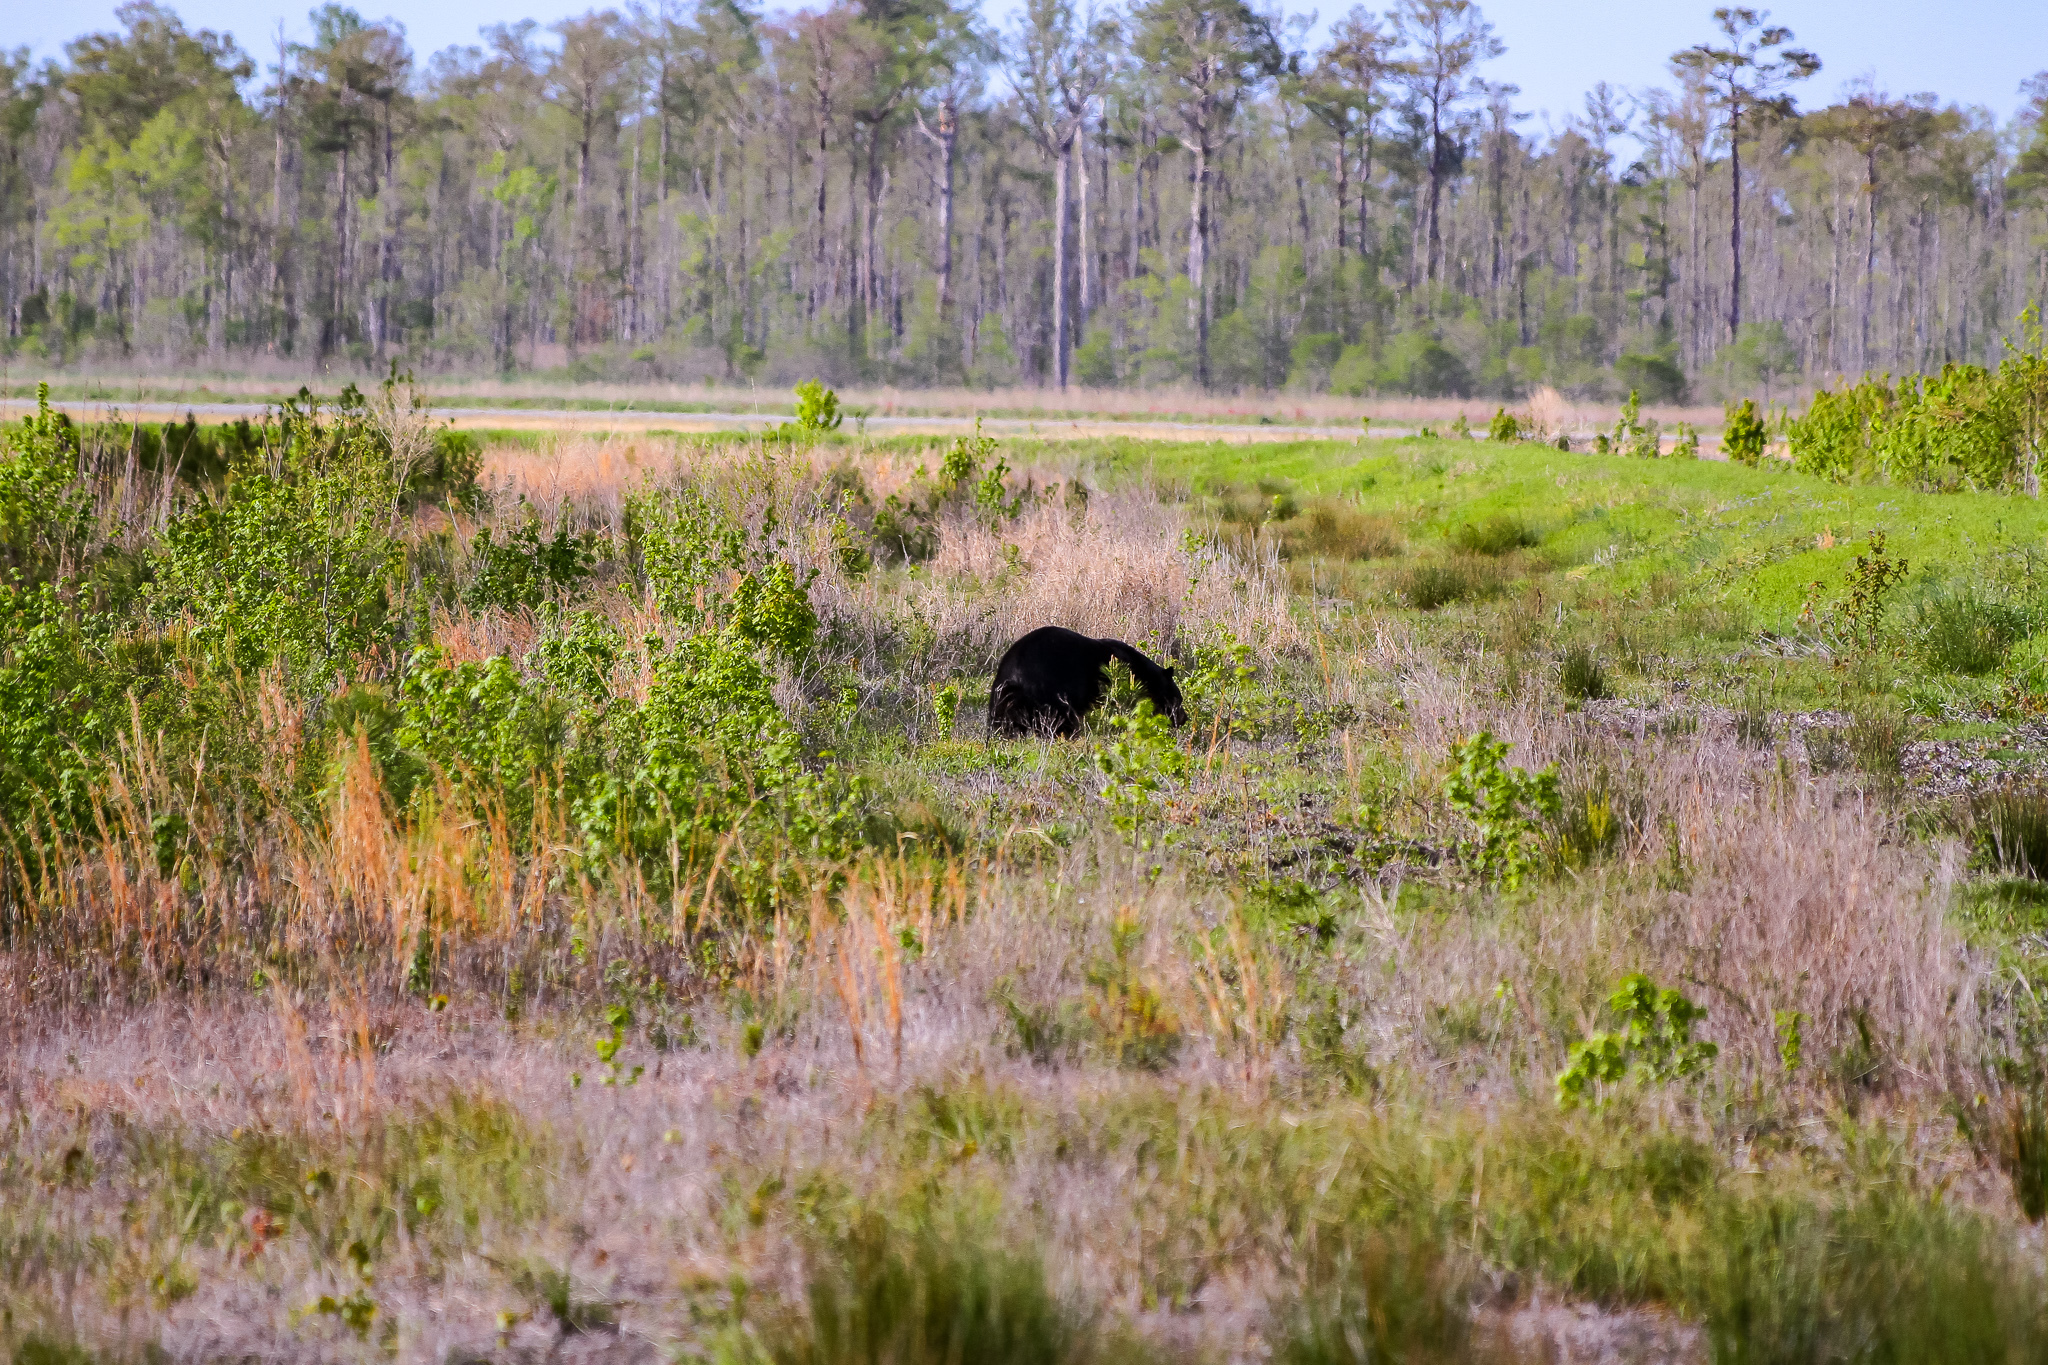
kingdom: Animalia
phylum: Chordata
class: Mammalia
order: Carnivora
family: Ursidae
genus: Ursus
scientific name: Ursus americanus
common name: American black bear
